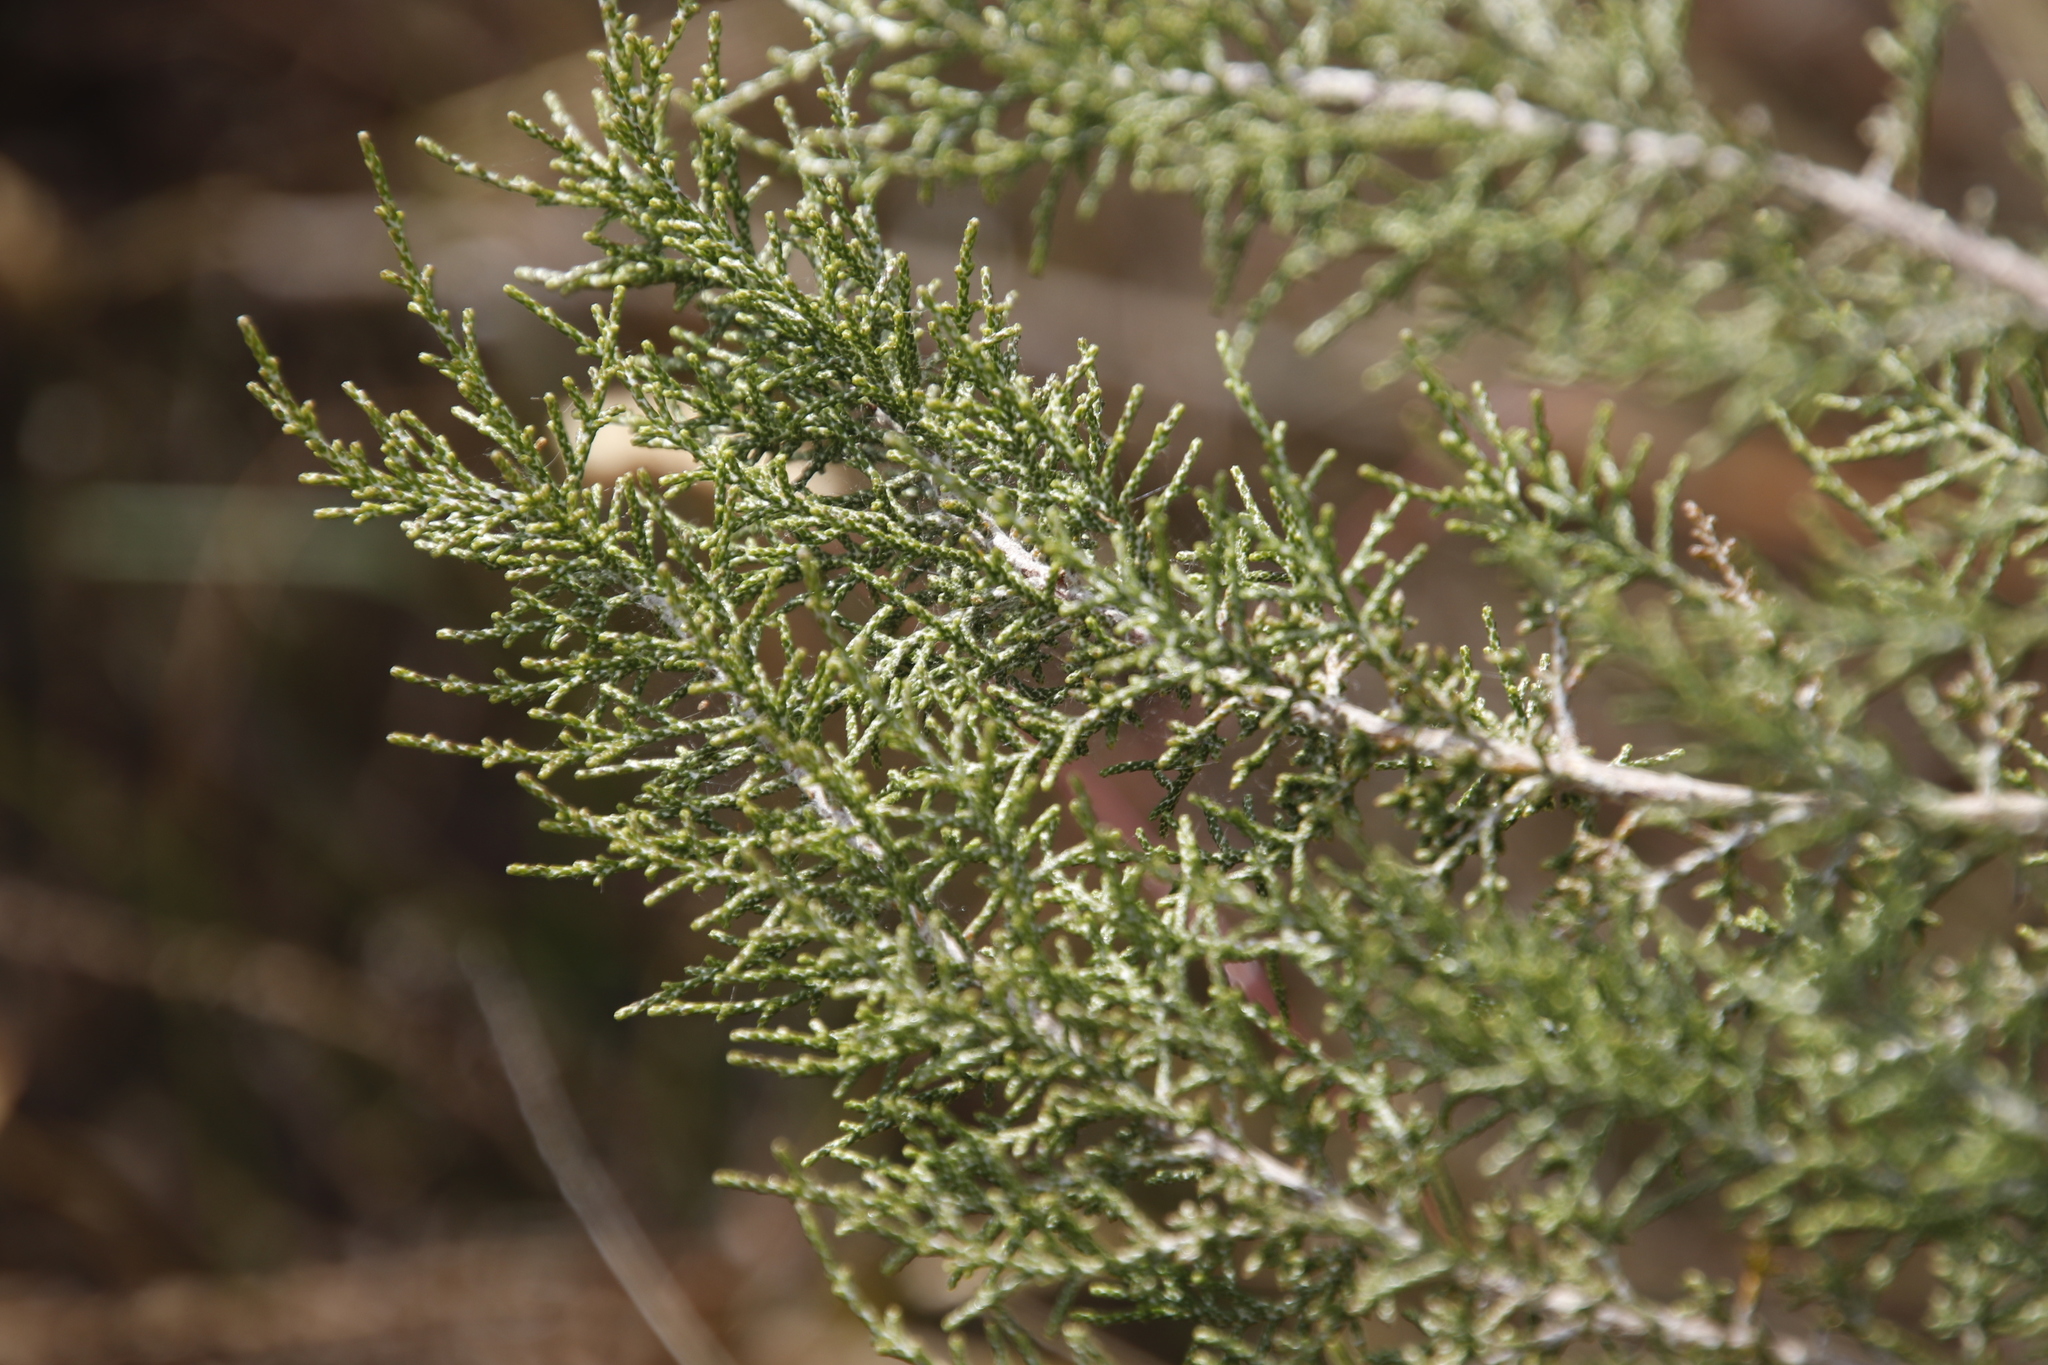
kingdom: Plantae
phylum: Tracheophyta
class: Magnoliopsida
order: Asterales
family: Asteraceae
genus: Dicerothamnus
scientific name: Dicerothamnus rhinocerotis
